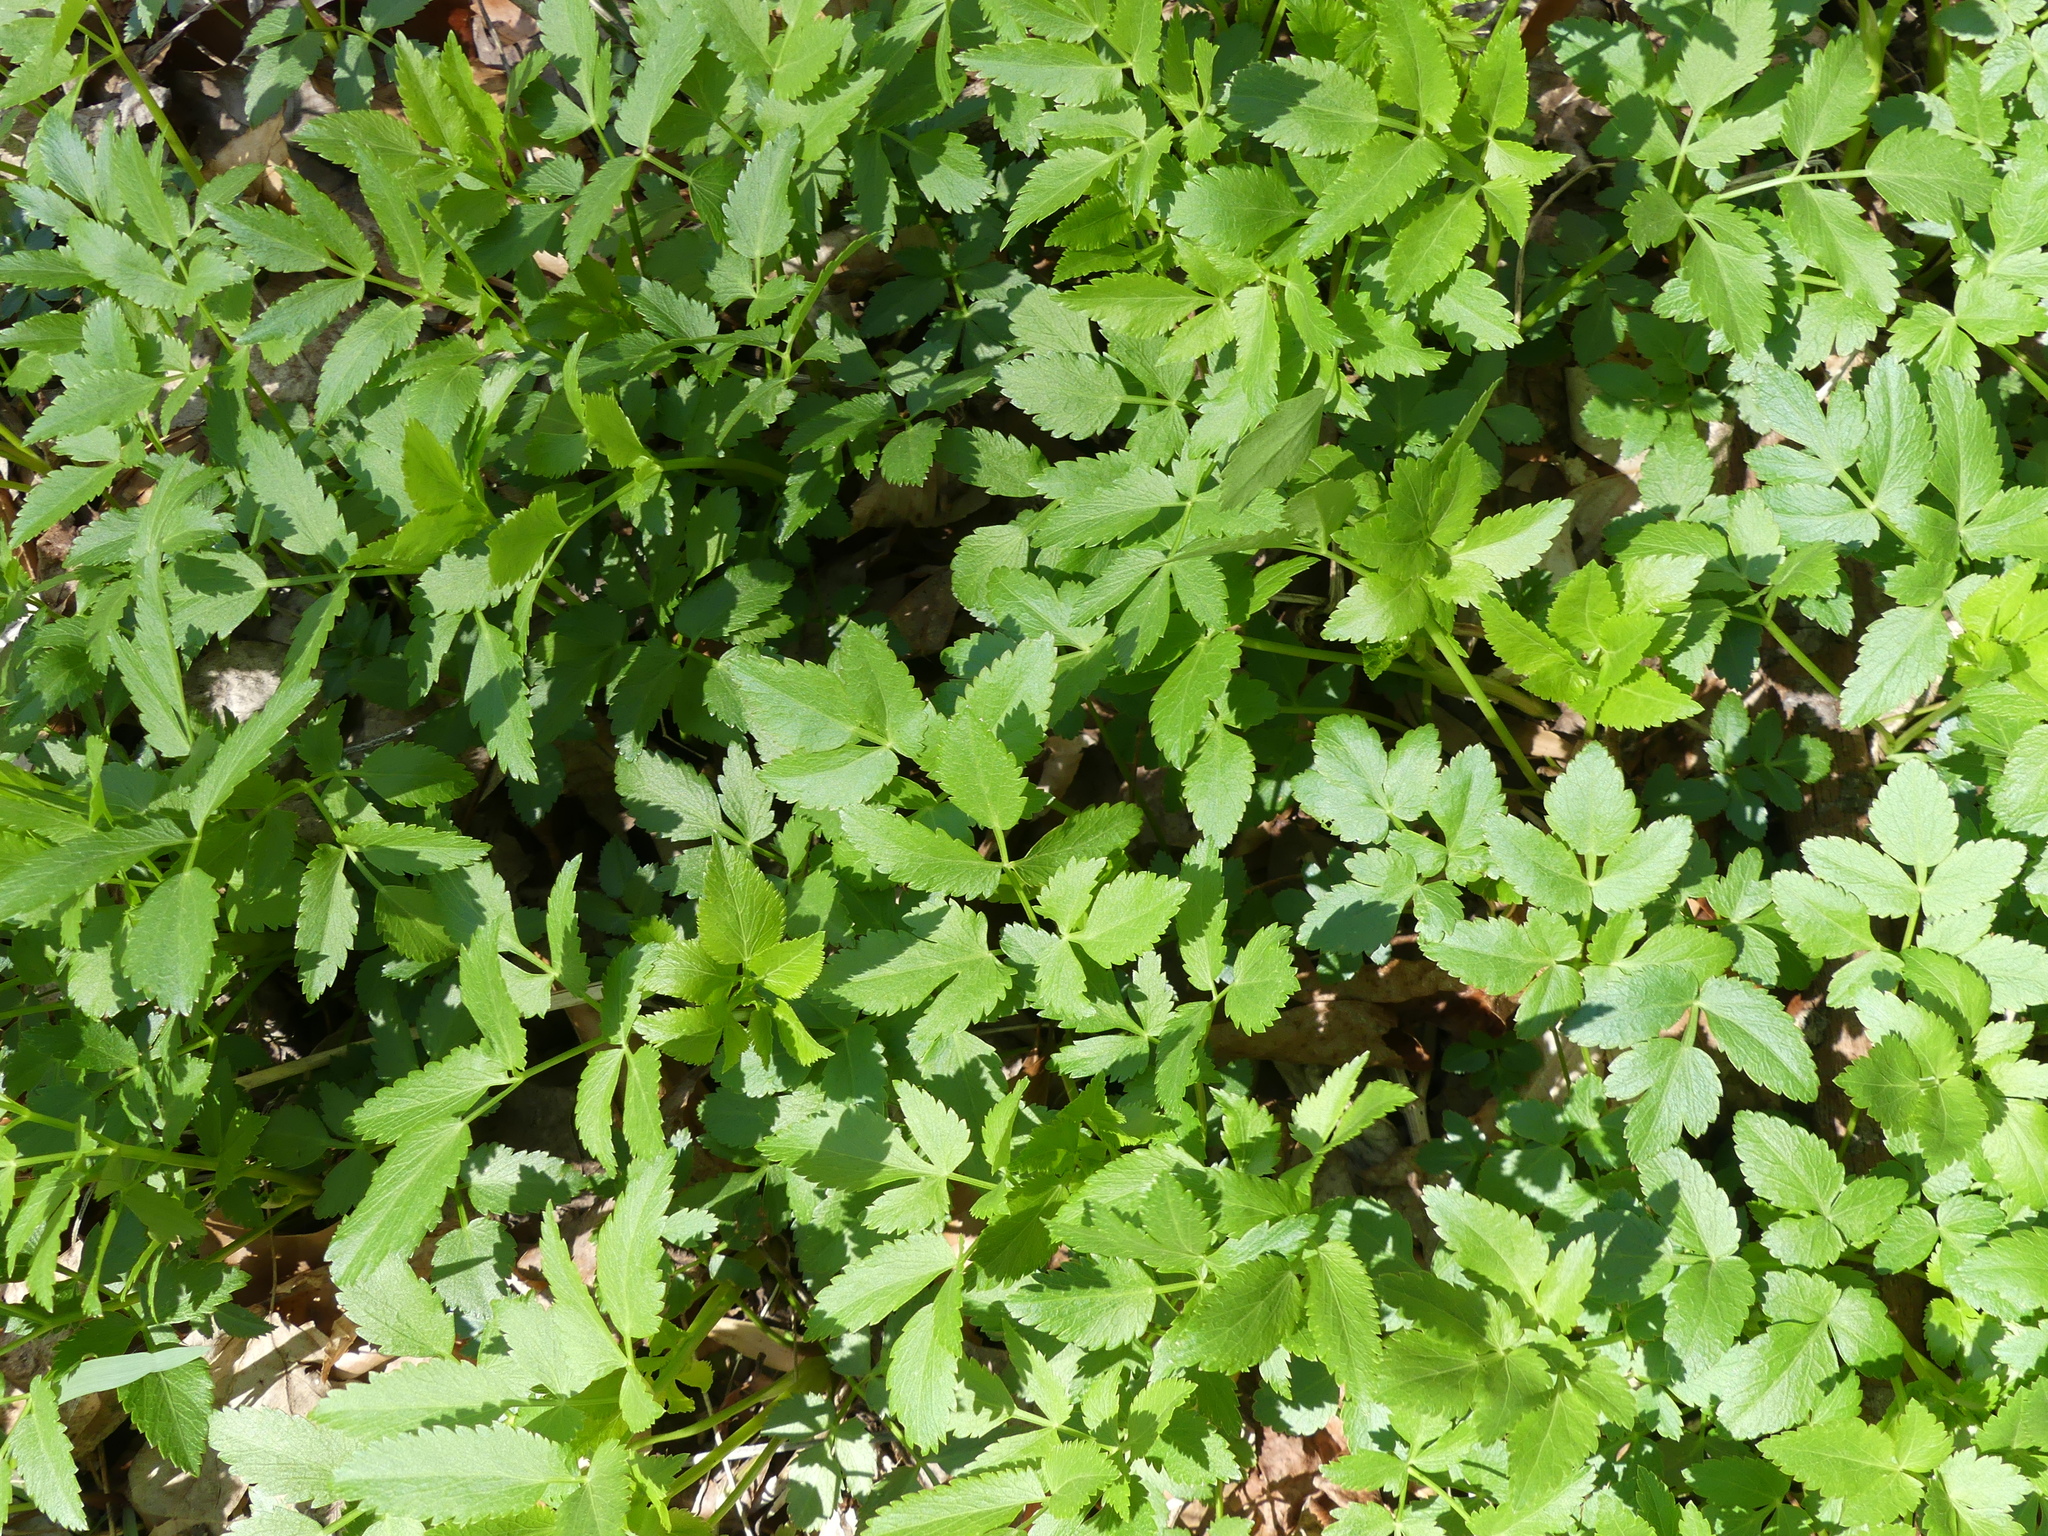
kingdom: Plantae
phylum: Tracheophyta
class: Magnoliopsida
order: Apiales
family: Apiaceae
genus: Zizia
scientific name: Zizia aurea
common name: Golden alexanders
